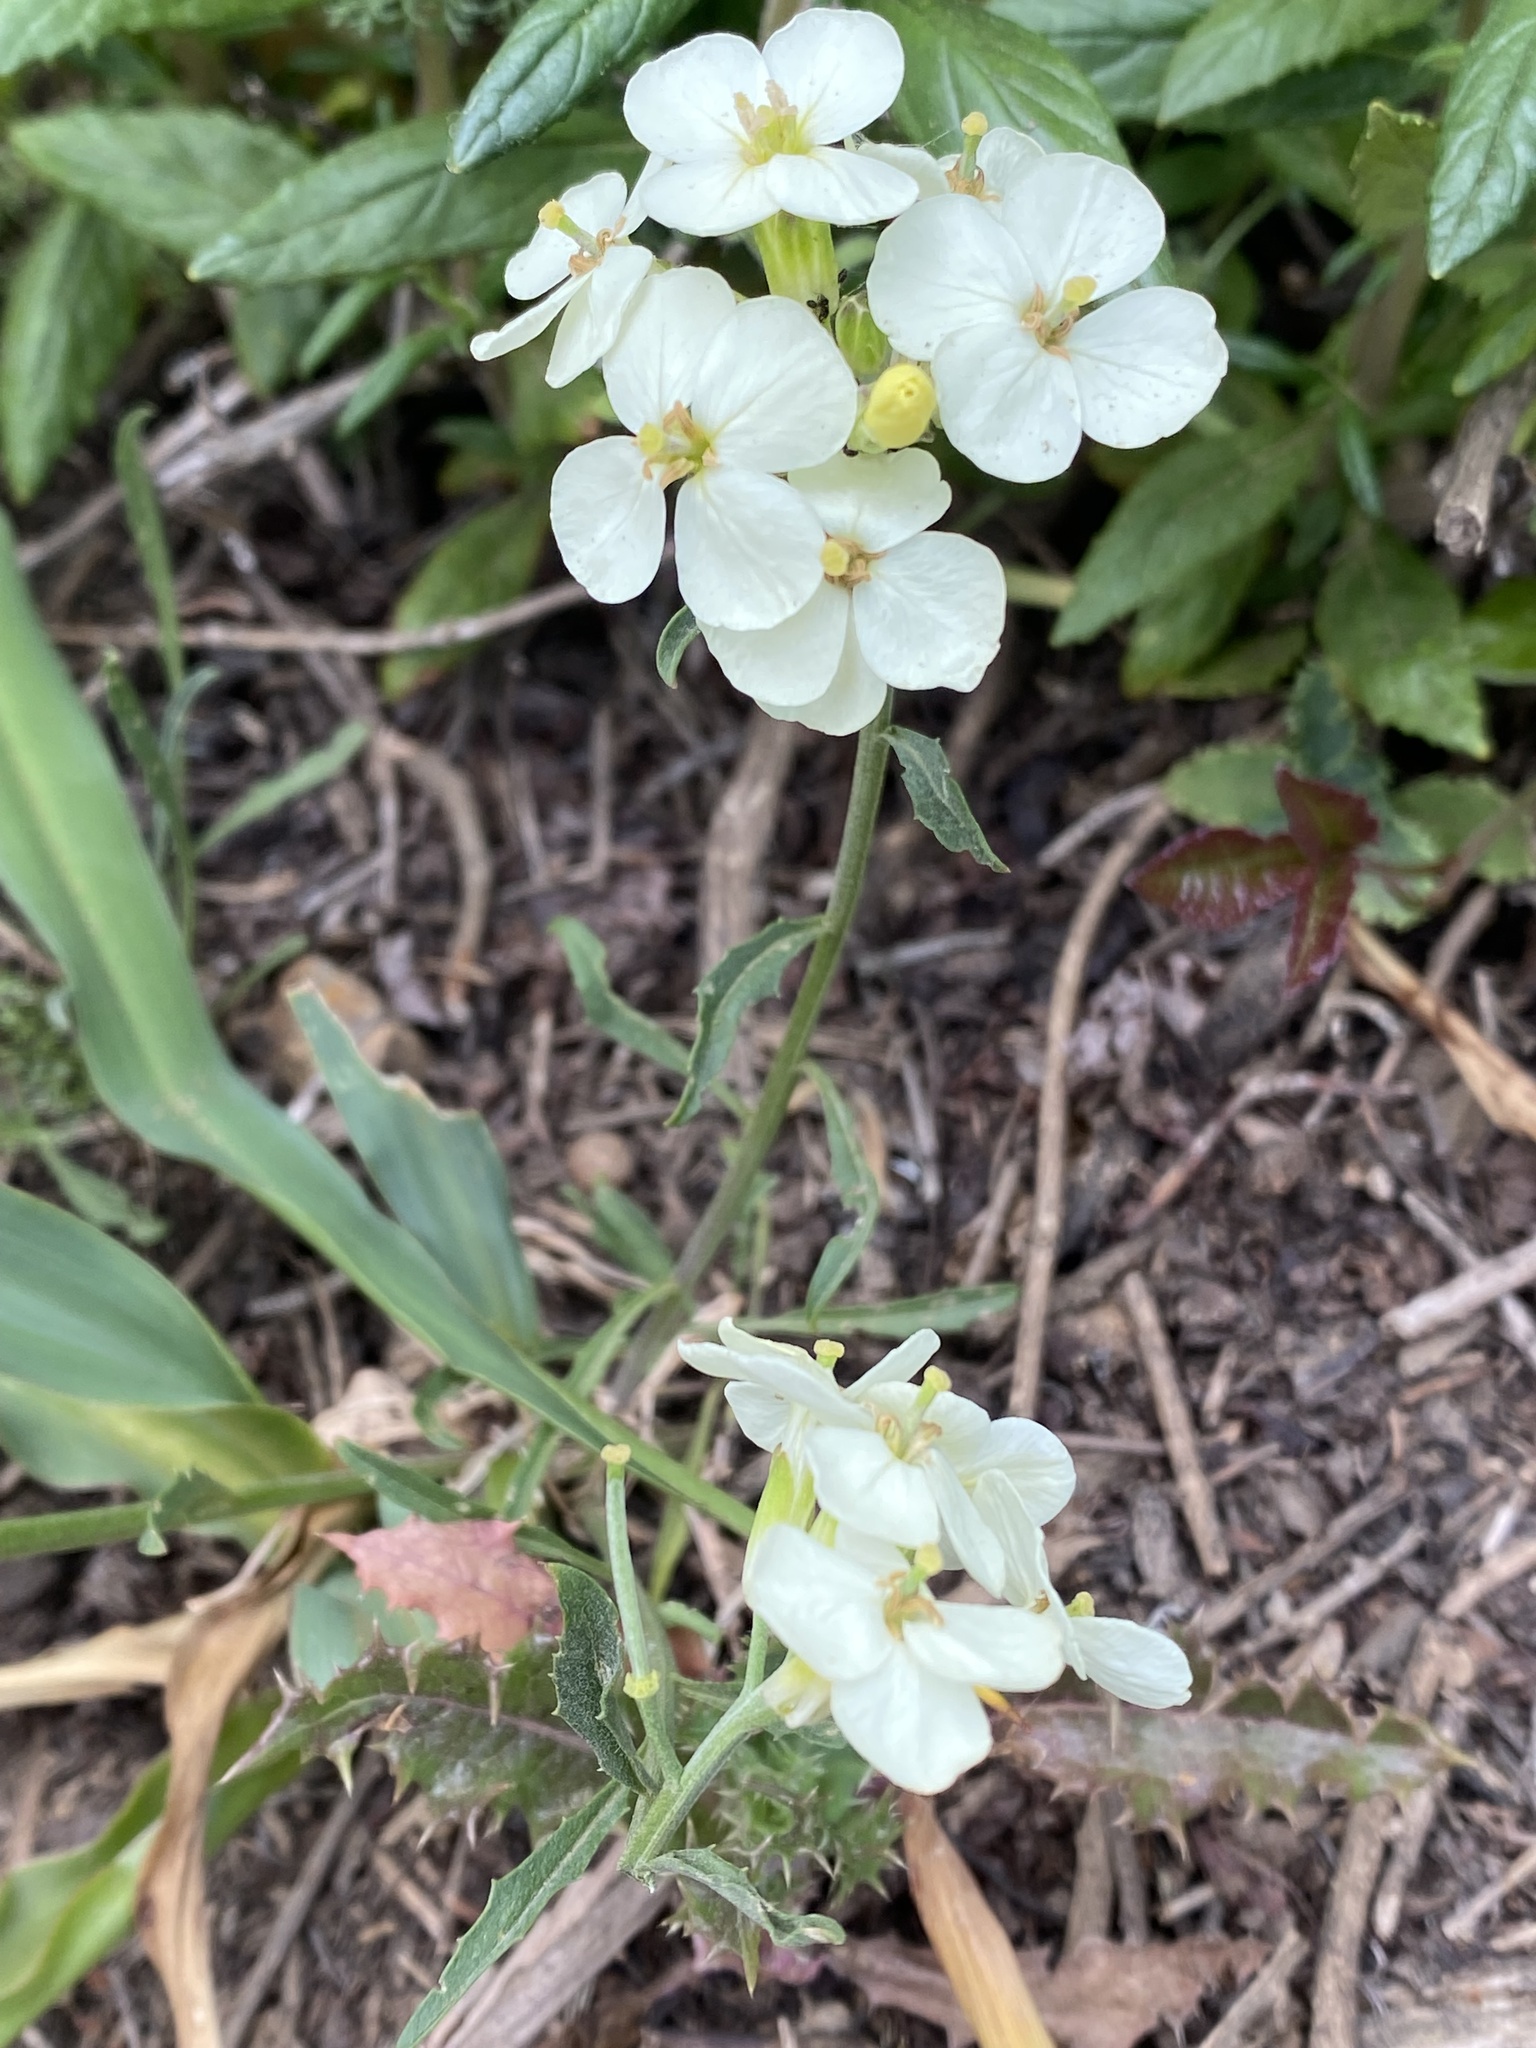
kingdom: Plantae
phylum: Tracheophyta
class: Magnoliopsida
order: Brassicales
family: Brassicaceae
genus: Erysimum
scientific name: Erysimum franciscanum
